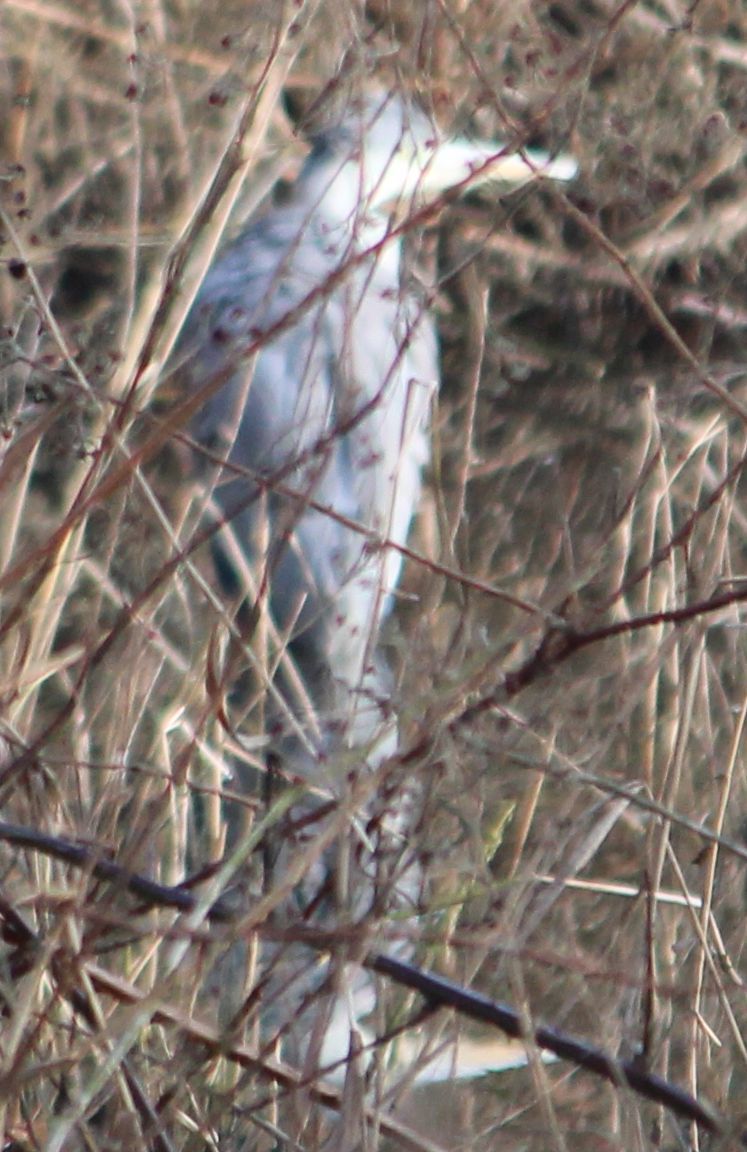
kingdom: Animalia
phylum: Chordata
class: Aves
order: Pelecaniformes
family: Ardeidae
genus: Ardea
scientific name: Ardea cinerea
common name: Grey heron
